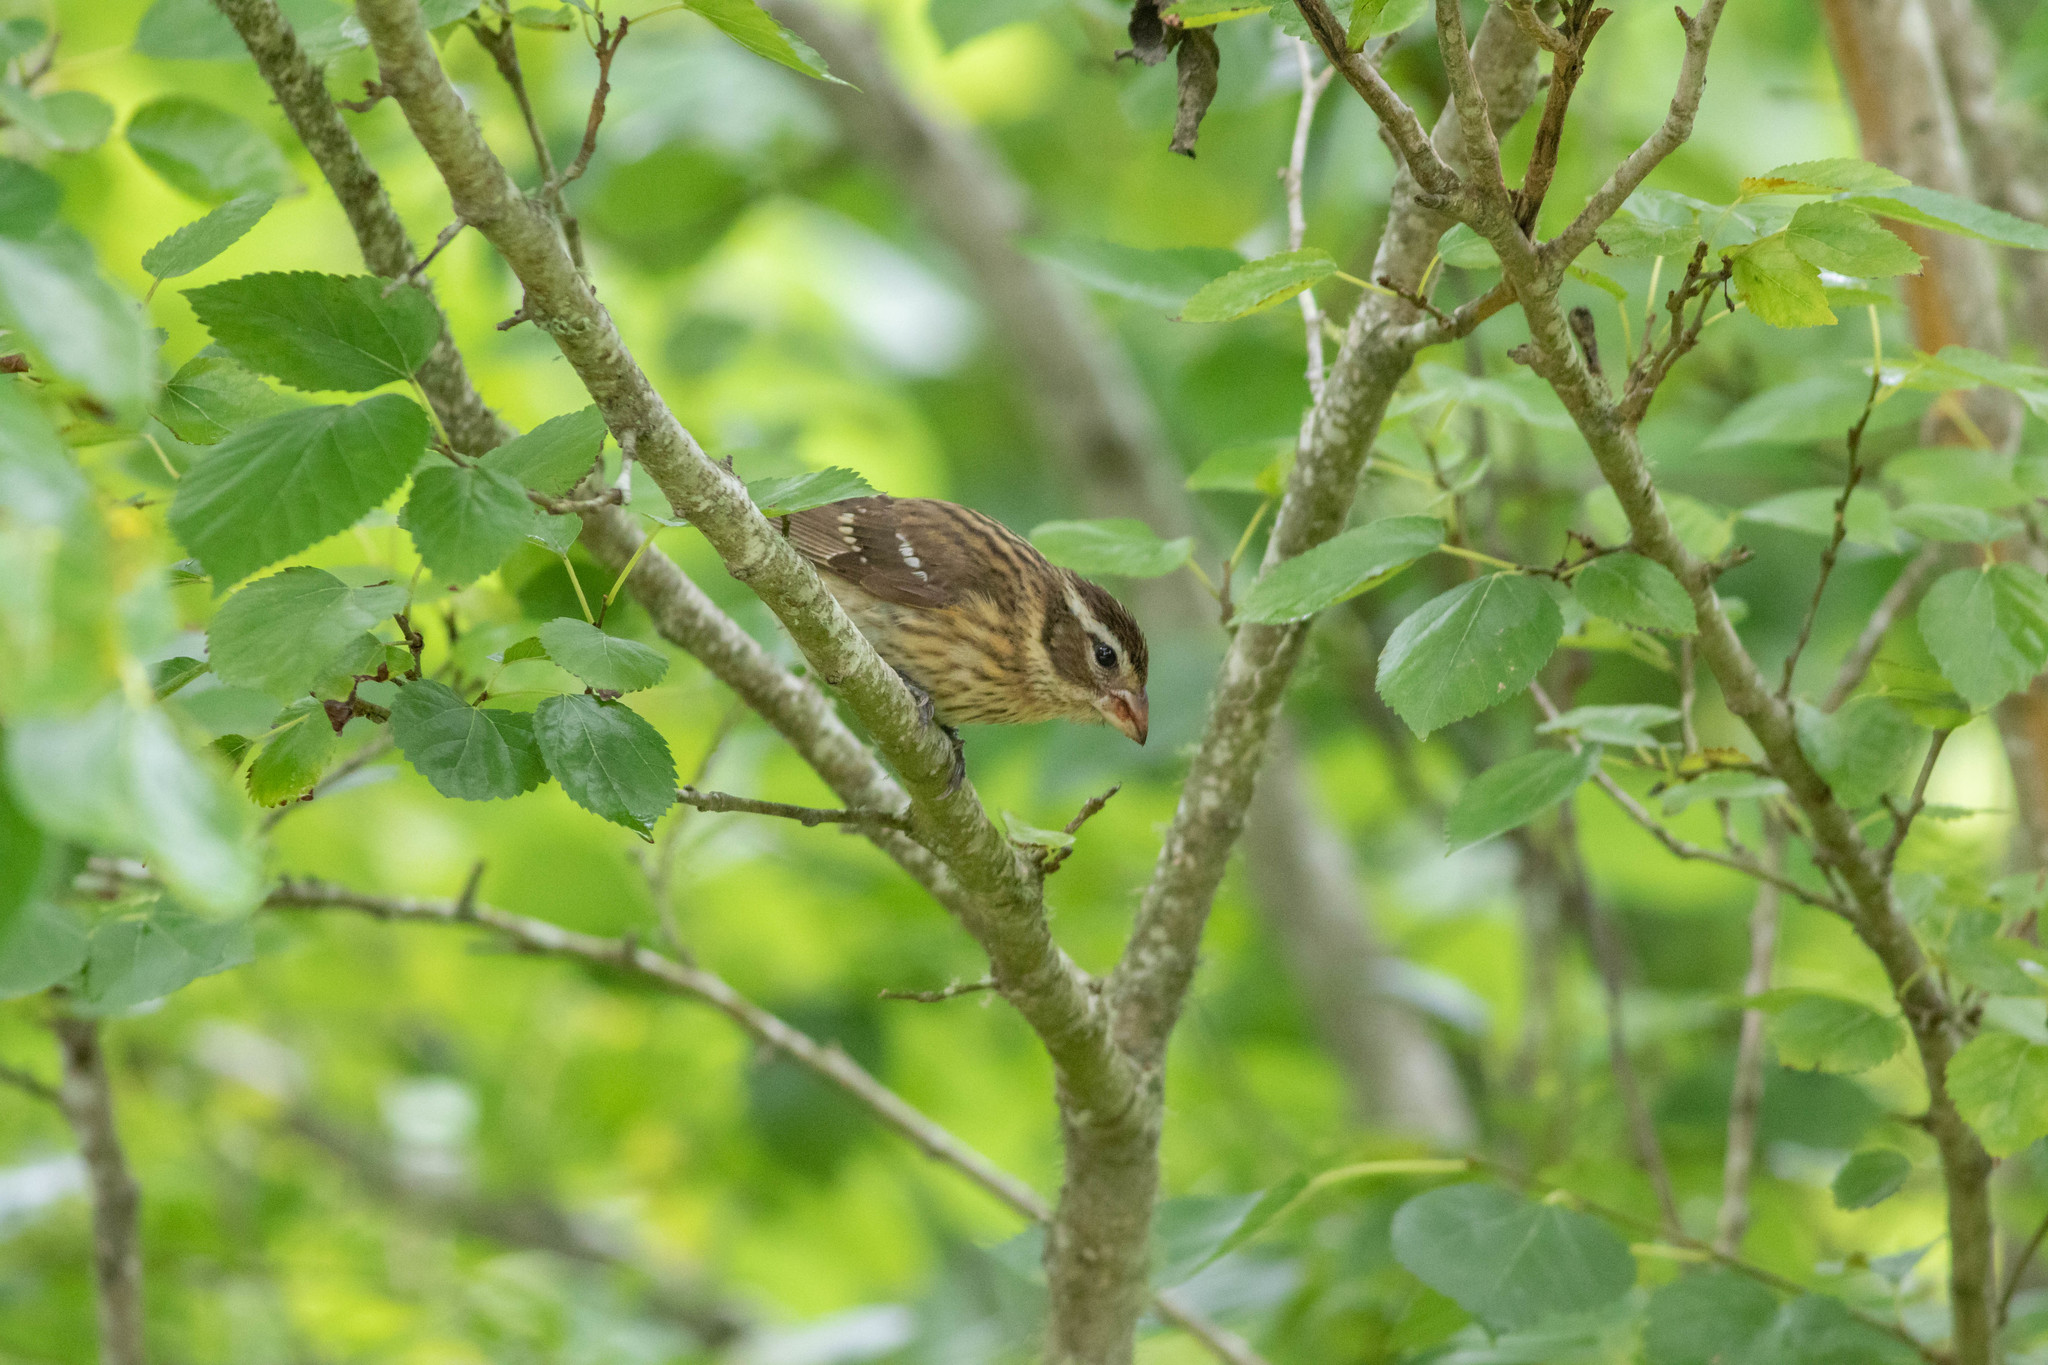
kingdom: Animalia
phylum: Chordata
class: Aves
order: Passeriformes
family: Cardinalidae
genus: Pheucticus
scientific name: Pheucticus ludovicianus
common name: Rose-breasted grosbeak
